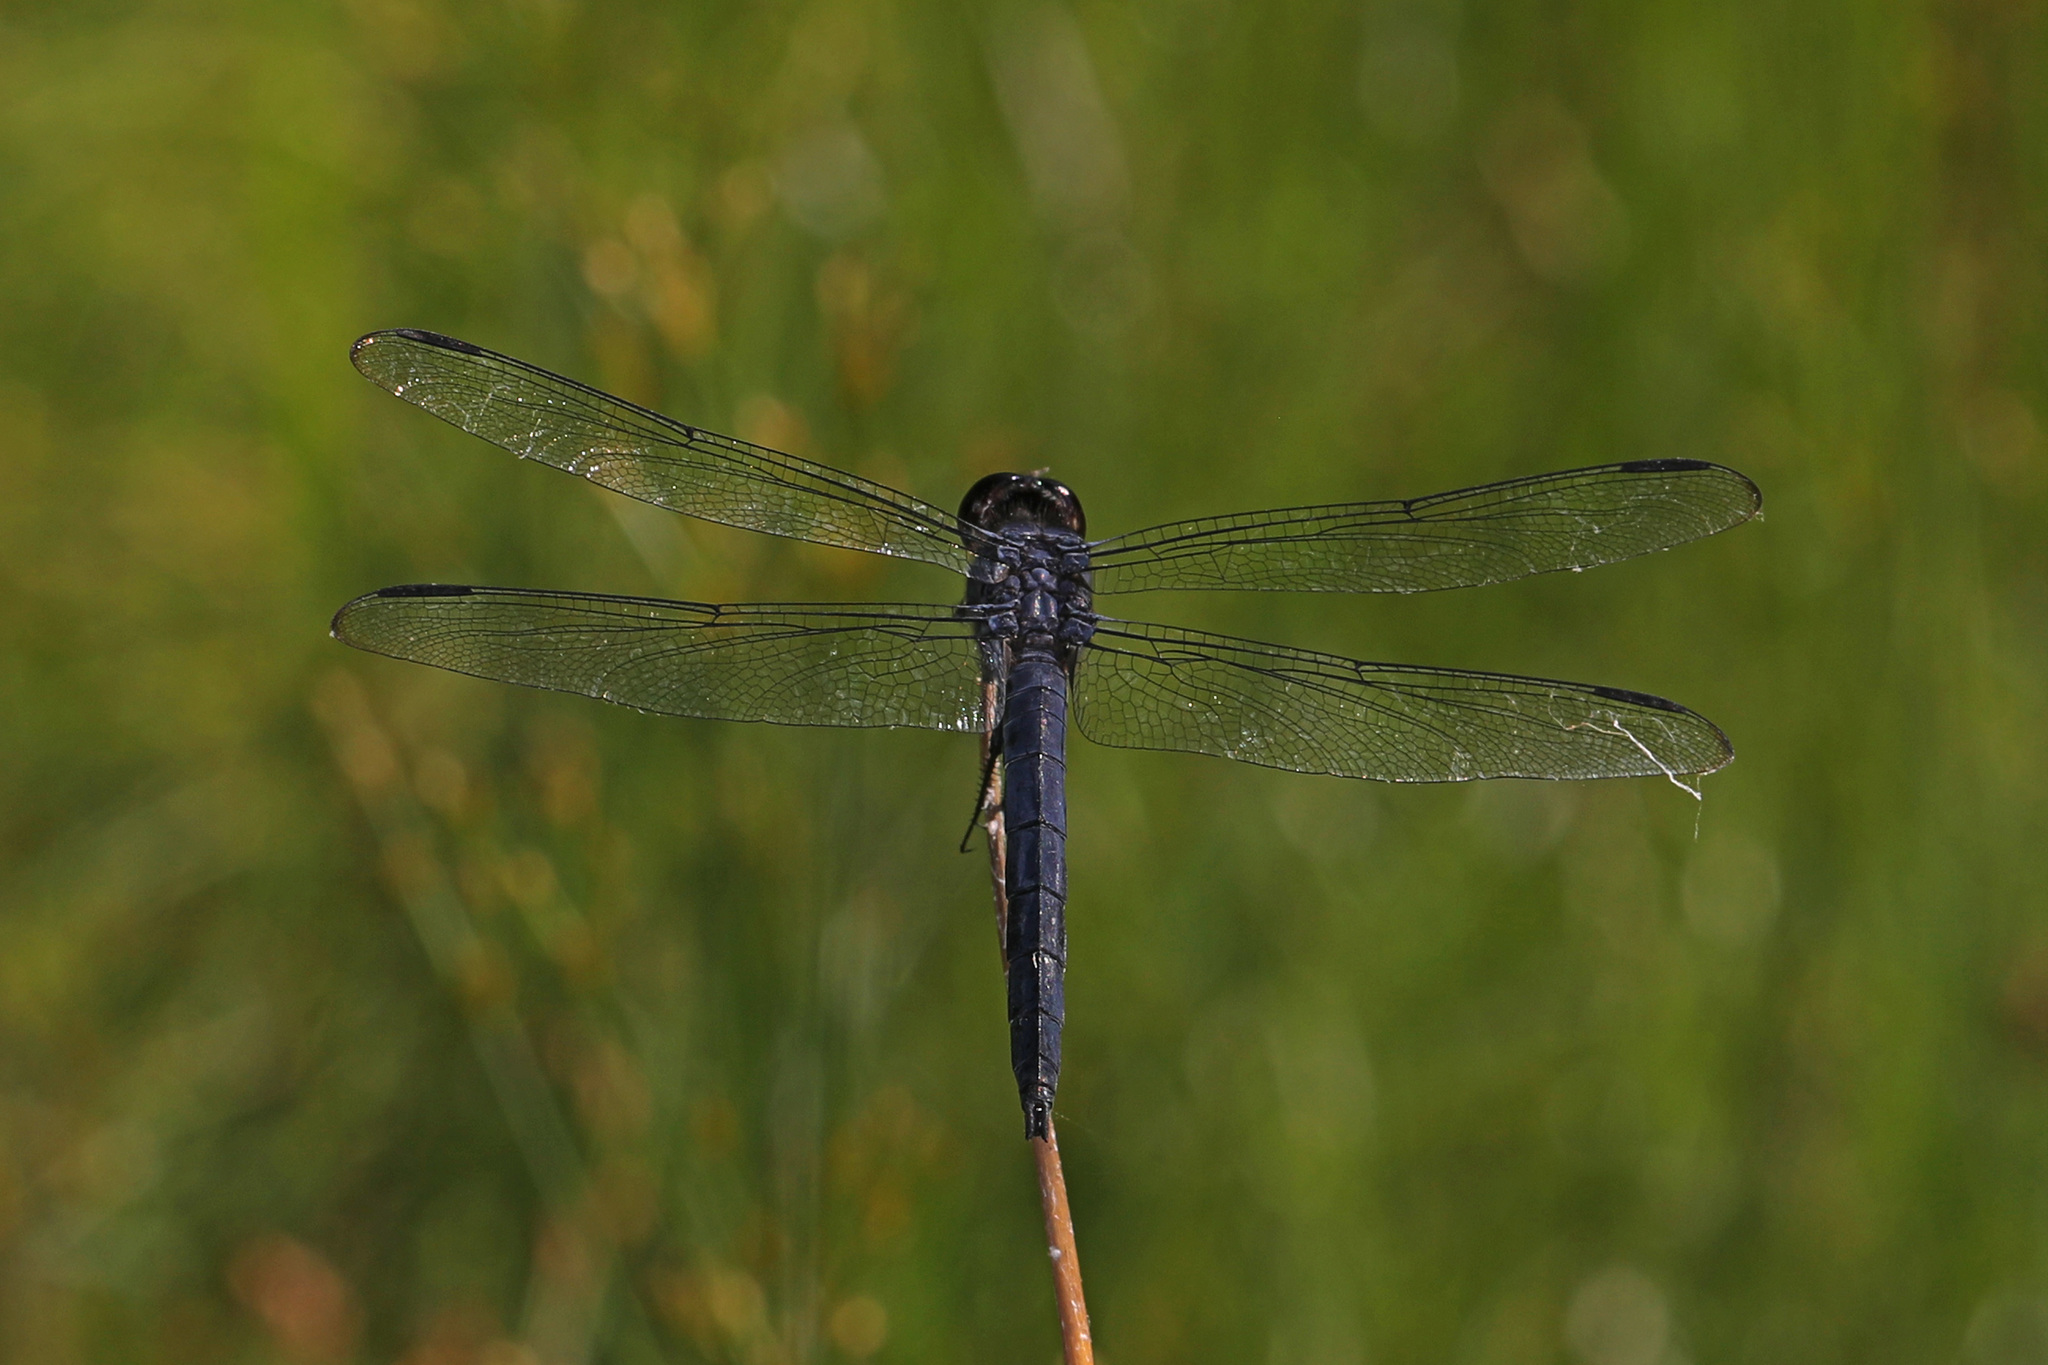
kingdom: Animalia
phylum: Arthropoda
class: Insecta
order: Odonata
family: Libellulidae
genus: Libellula
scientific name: Libellula incesta
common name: Slaty skimmer
